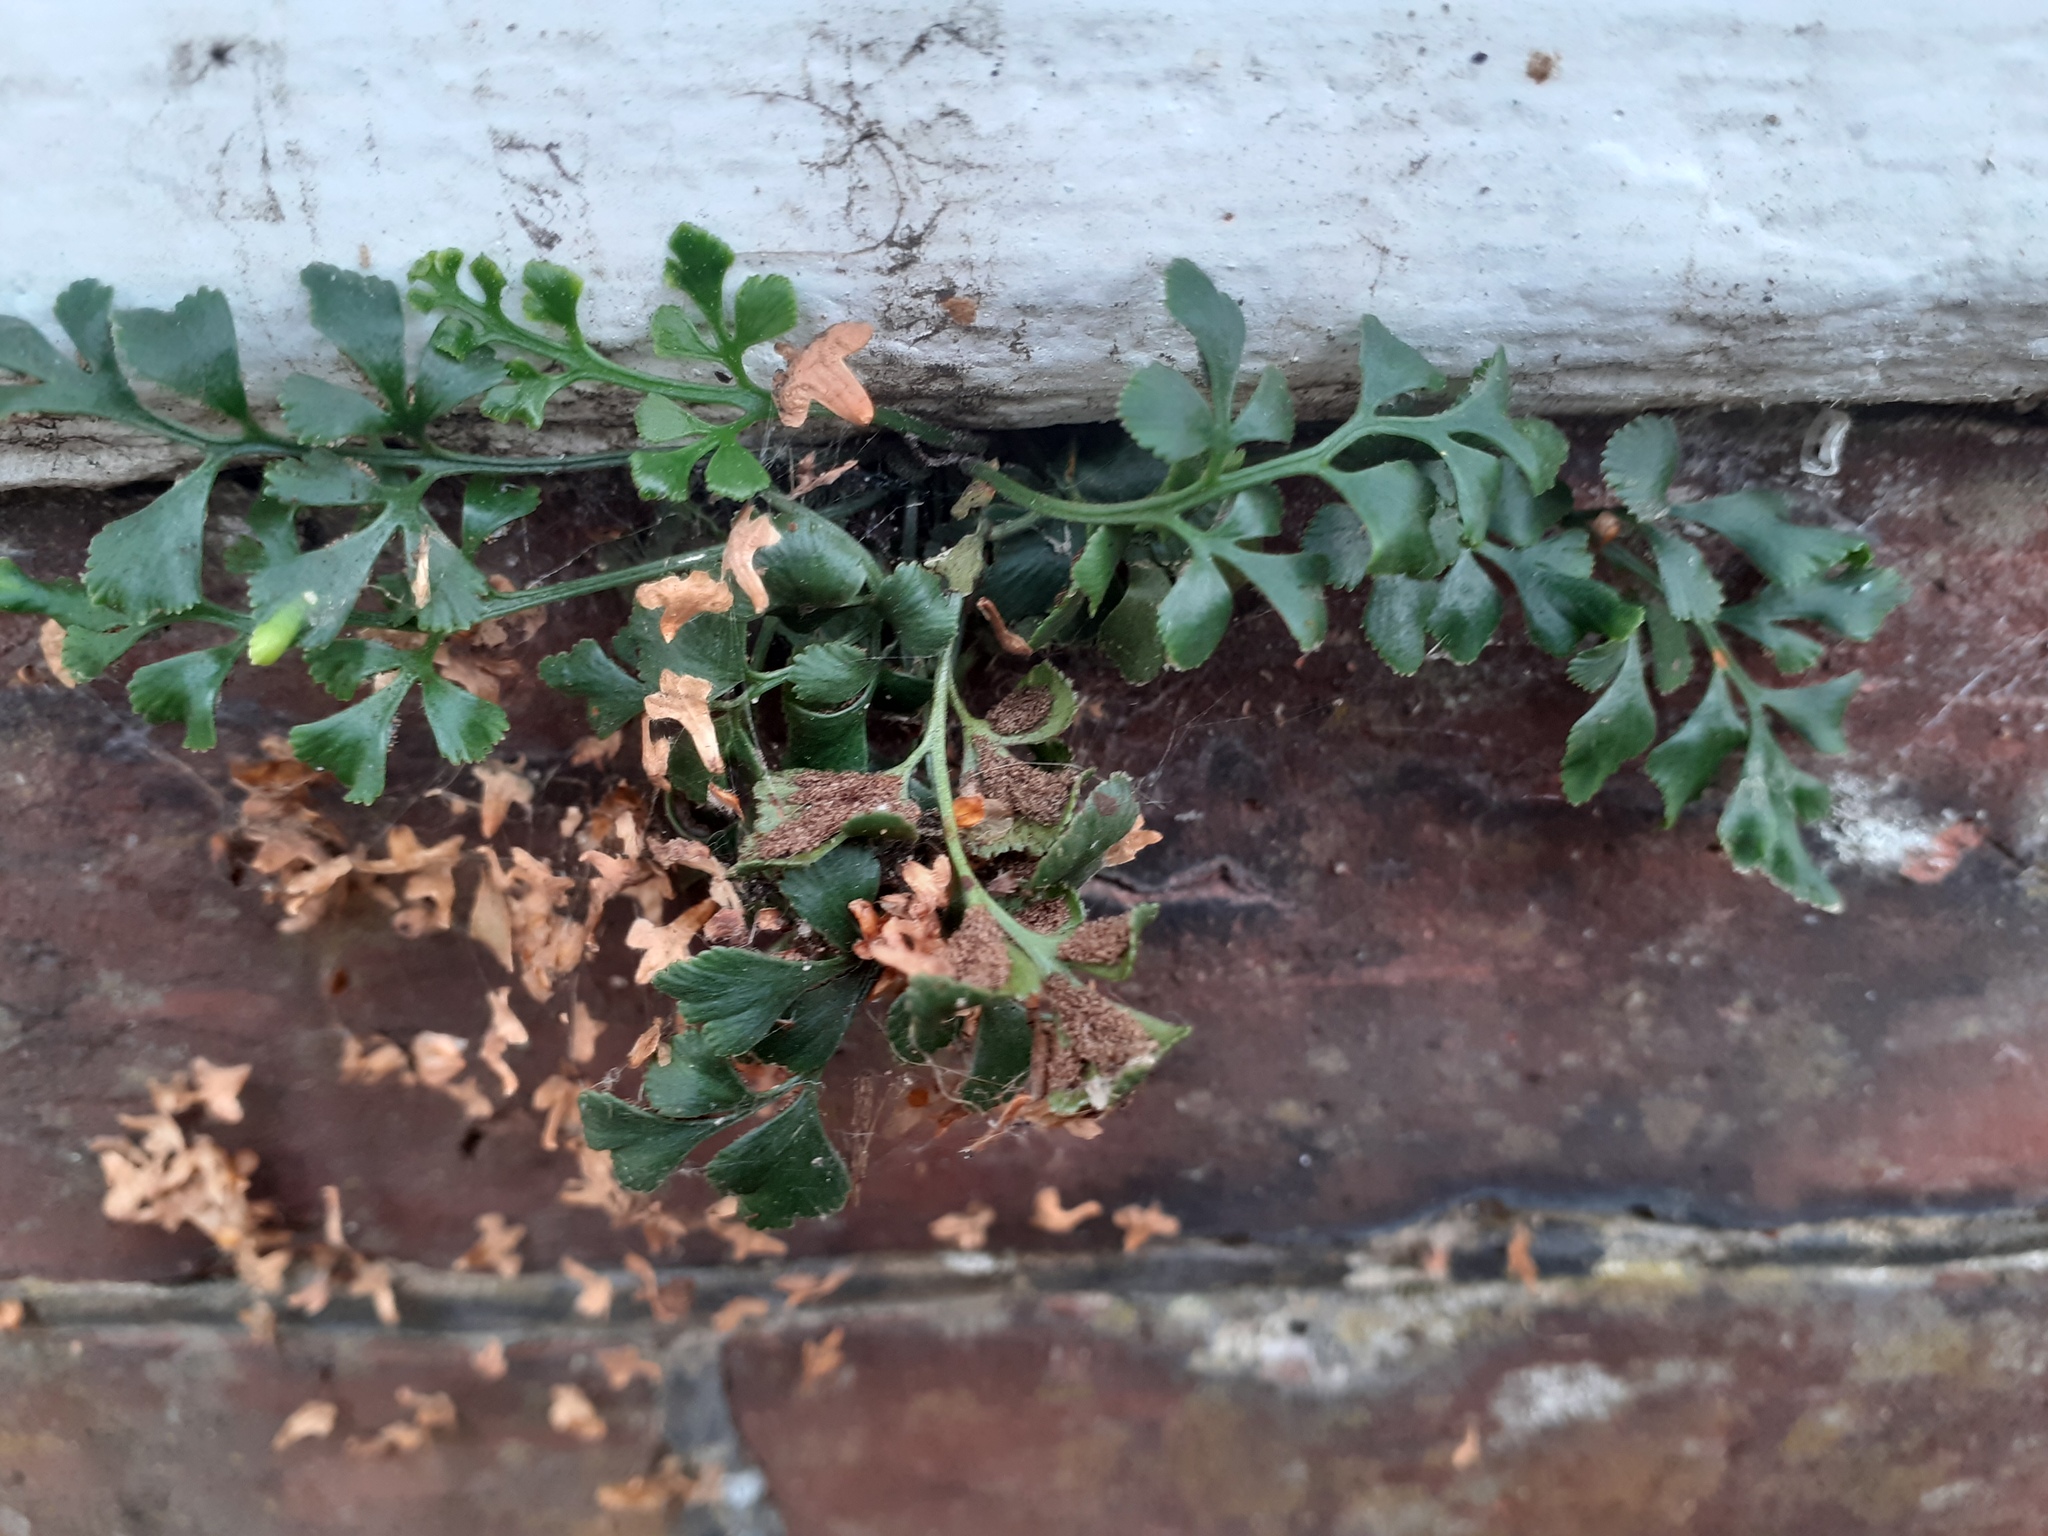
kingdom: Plantae
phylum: Tracheophyta
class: Polypodiopsida
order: Polypodiales
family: Aspleniaceae
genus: Asplenium
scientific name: Asplenium ruta-muraria
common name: Wall-rue
